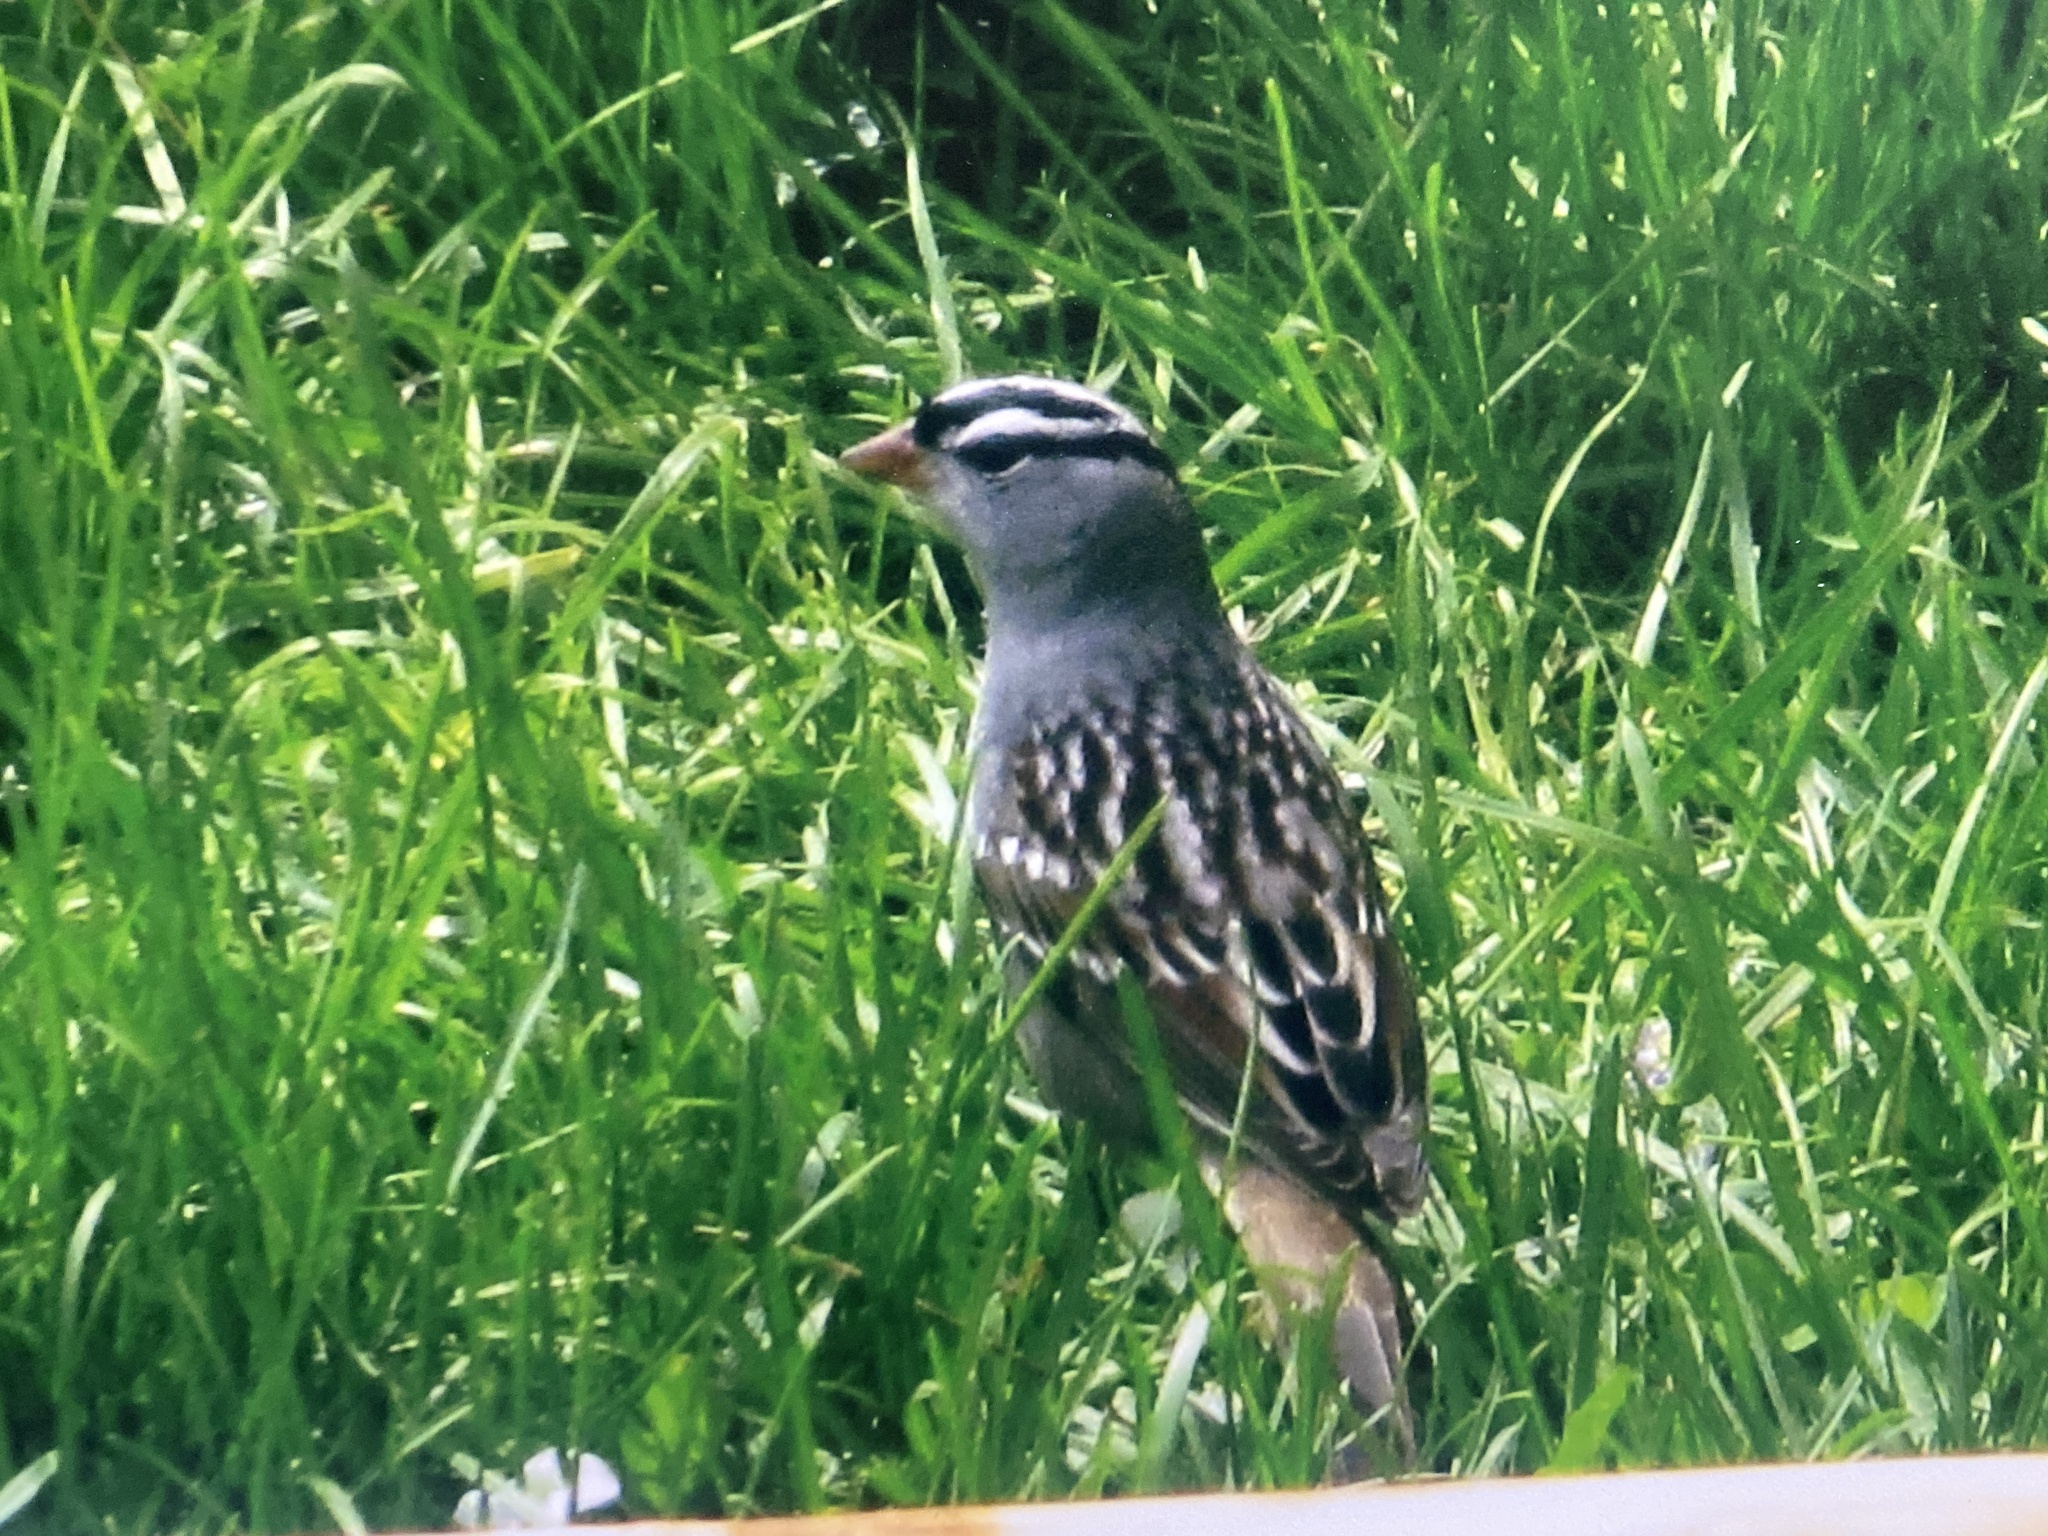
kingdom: Animalia
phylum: Chordata
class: Aves
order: Passeriformes
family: Passerellidae
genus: Zonotrichia
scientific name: Zonotrichia leucophrys
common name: White-crowned sparrow
